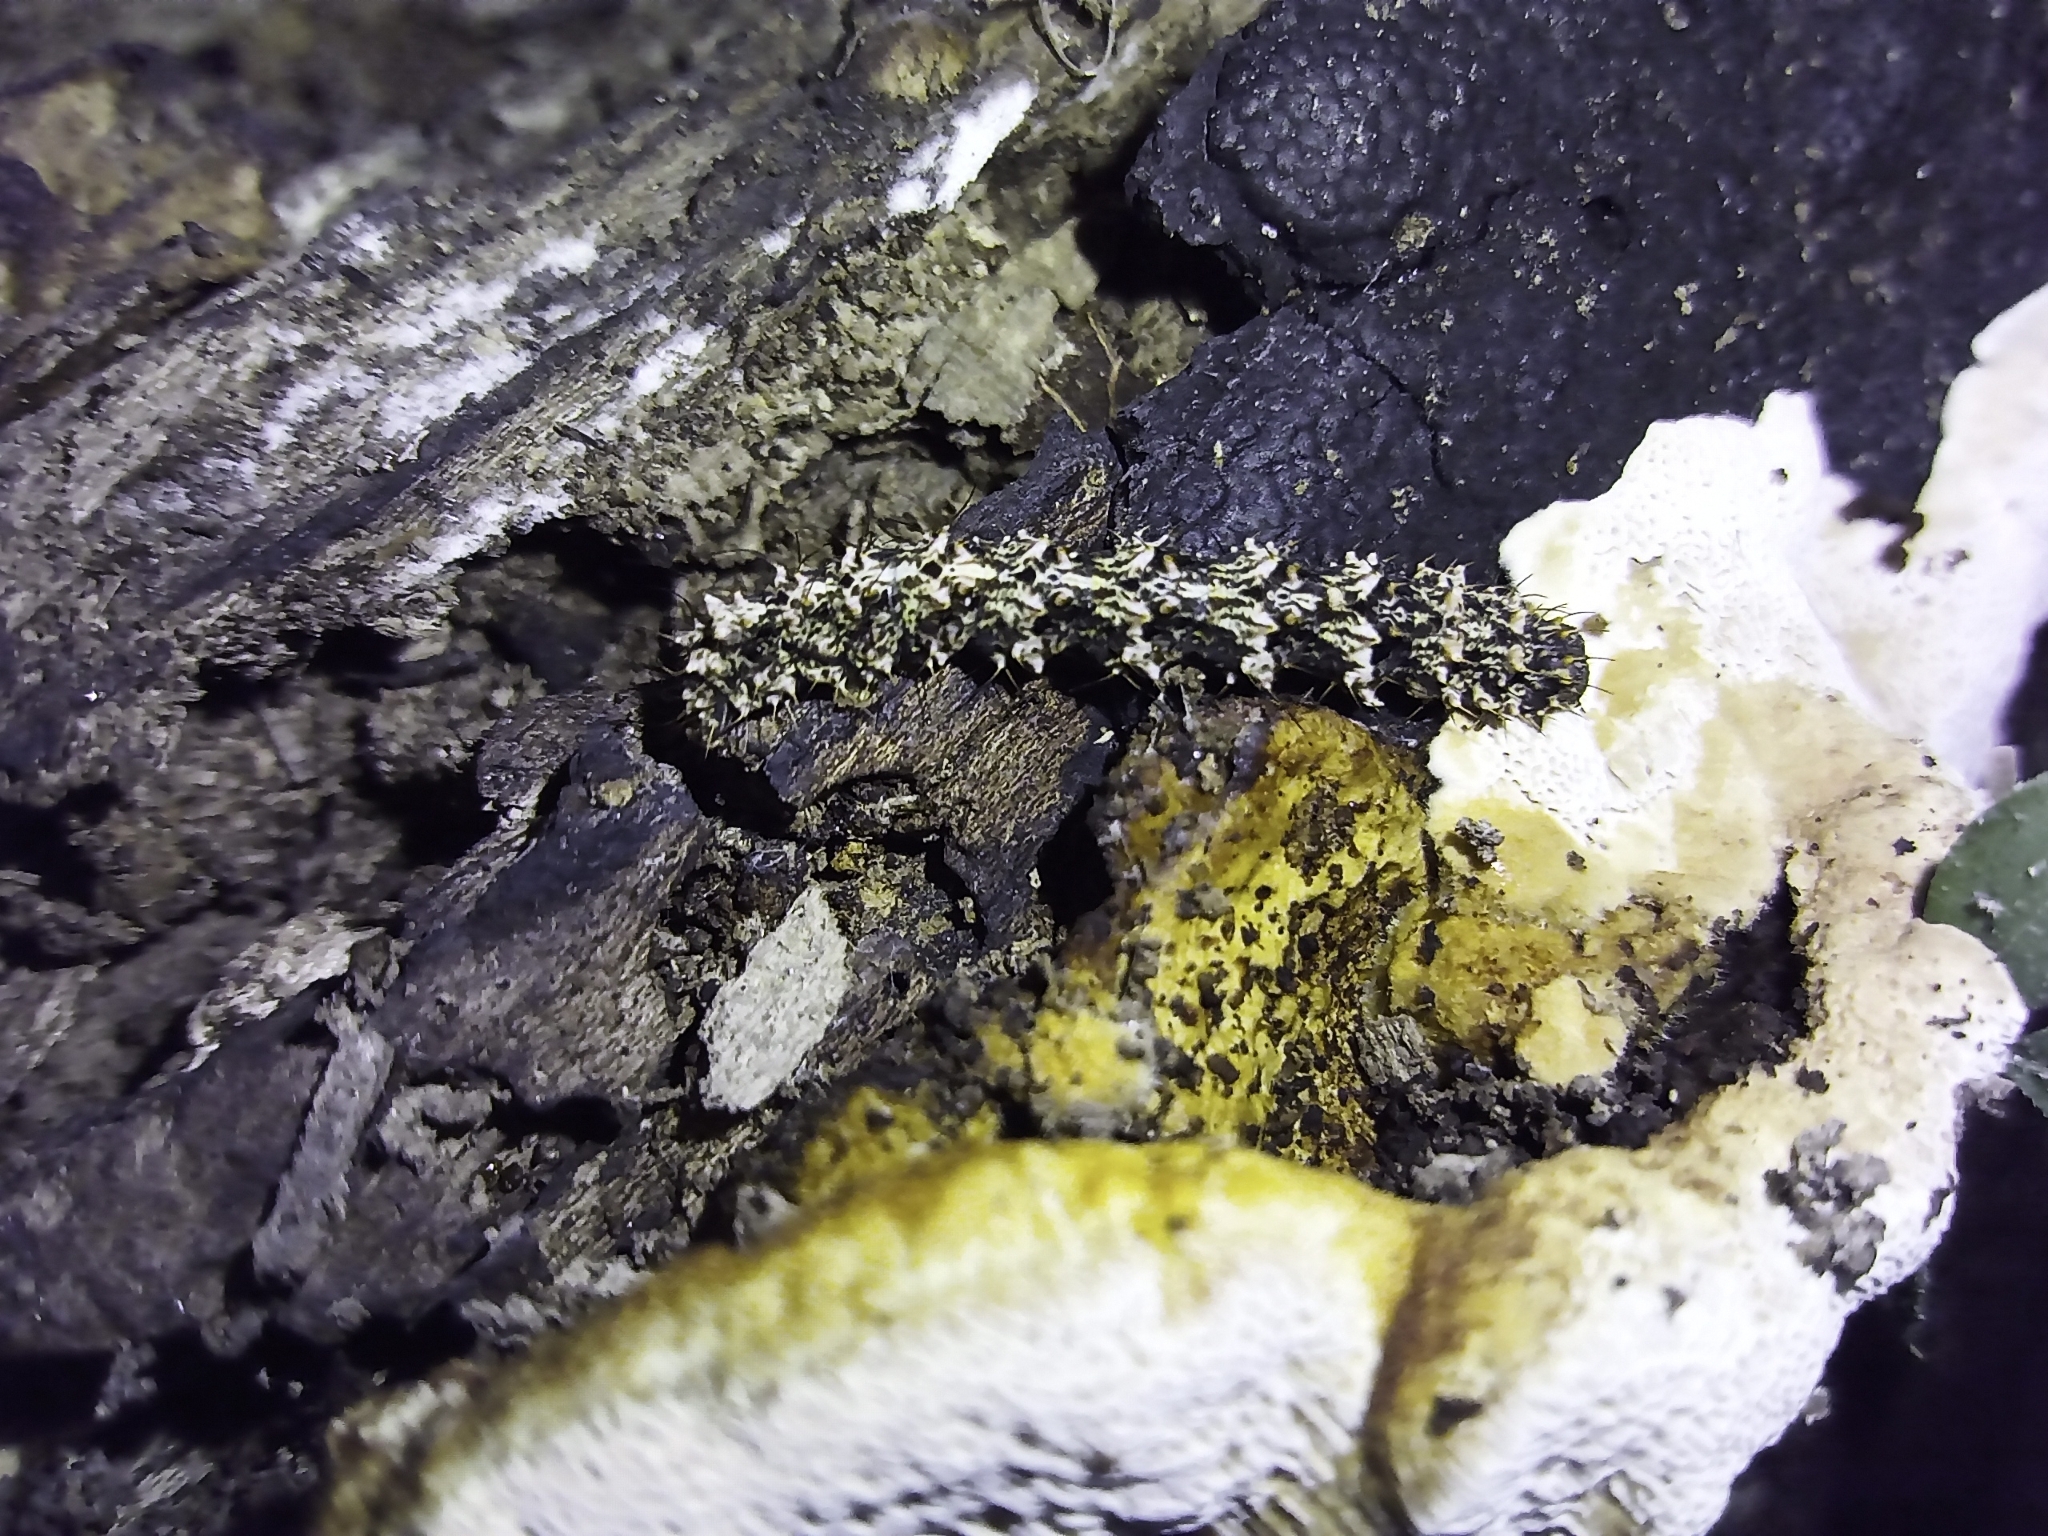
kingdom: Animalia
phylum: Arthropoda
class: Insecta
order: Lepidoptera
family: Erebidae
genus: Metalectra
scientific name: Metalectra discalis
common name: Common fungus moth
